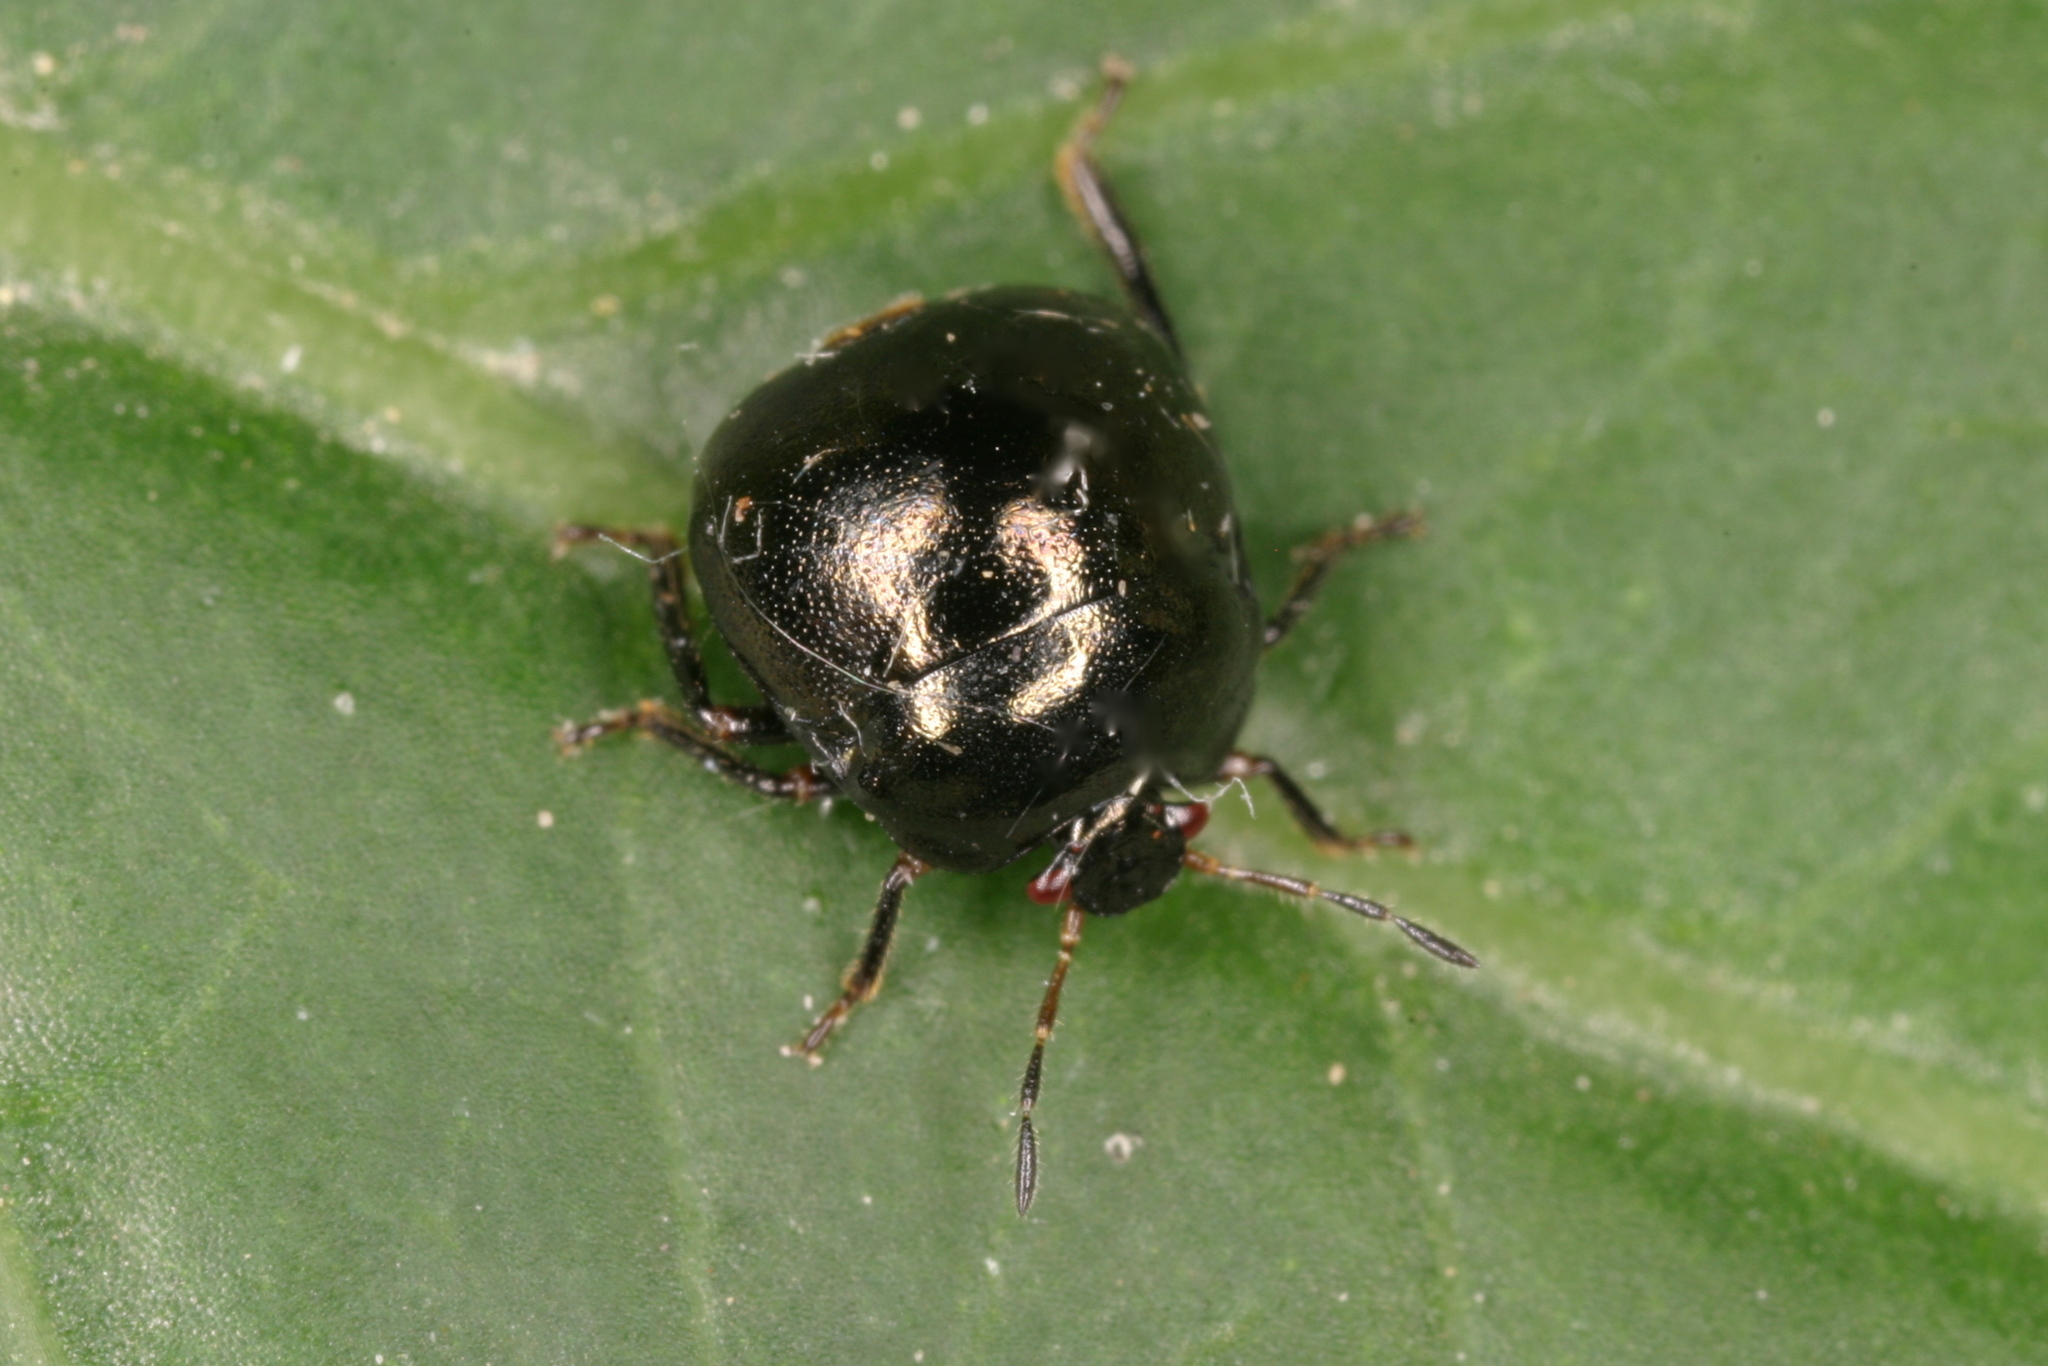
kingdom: Animalia
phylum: Arthropoda
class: Insecta
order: Hemiptera
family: Plataspidae
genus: Coptosoma
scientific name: Coptosoma scutellatum
